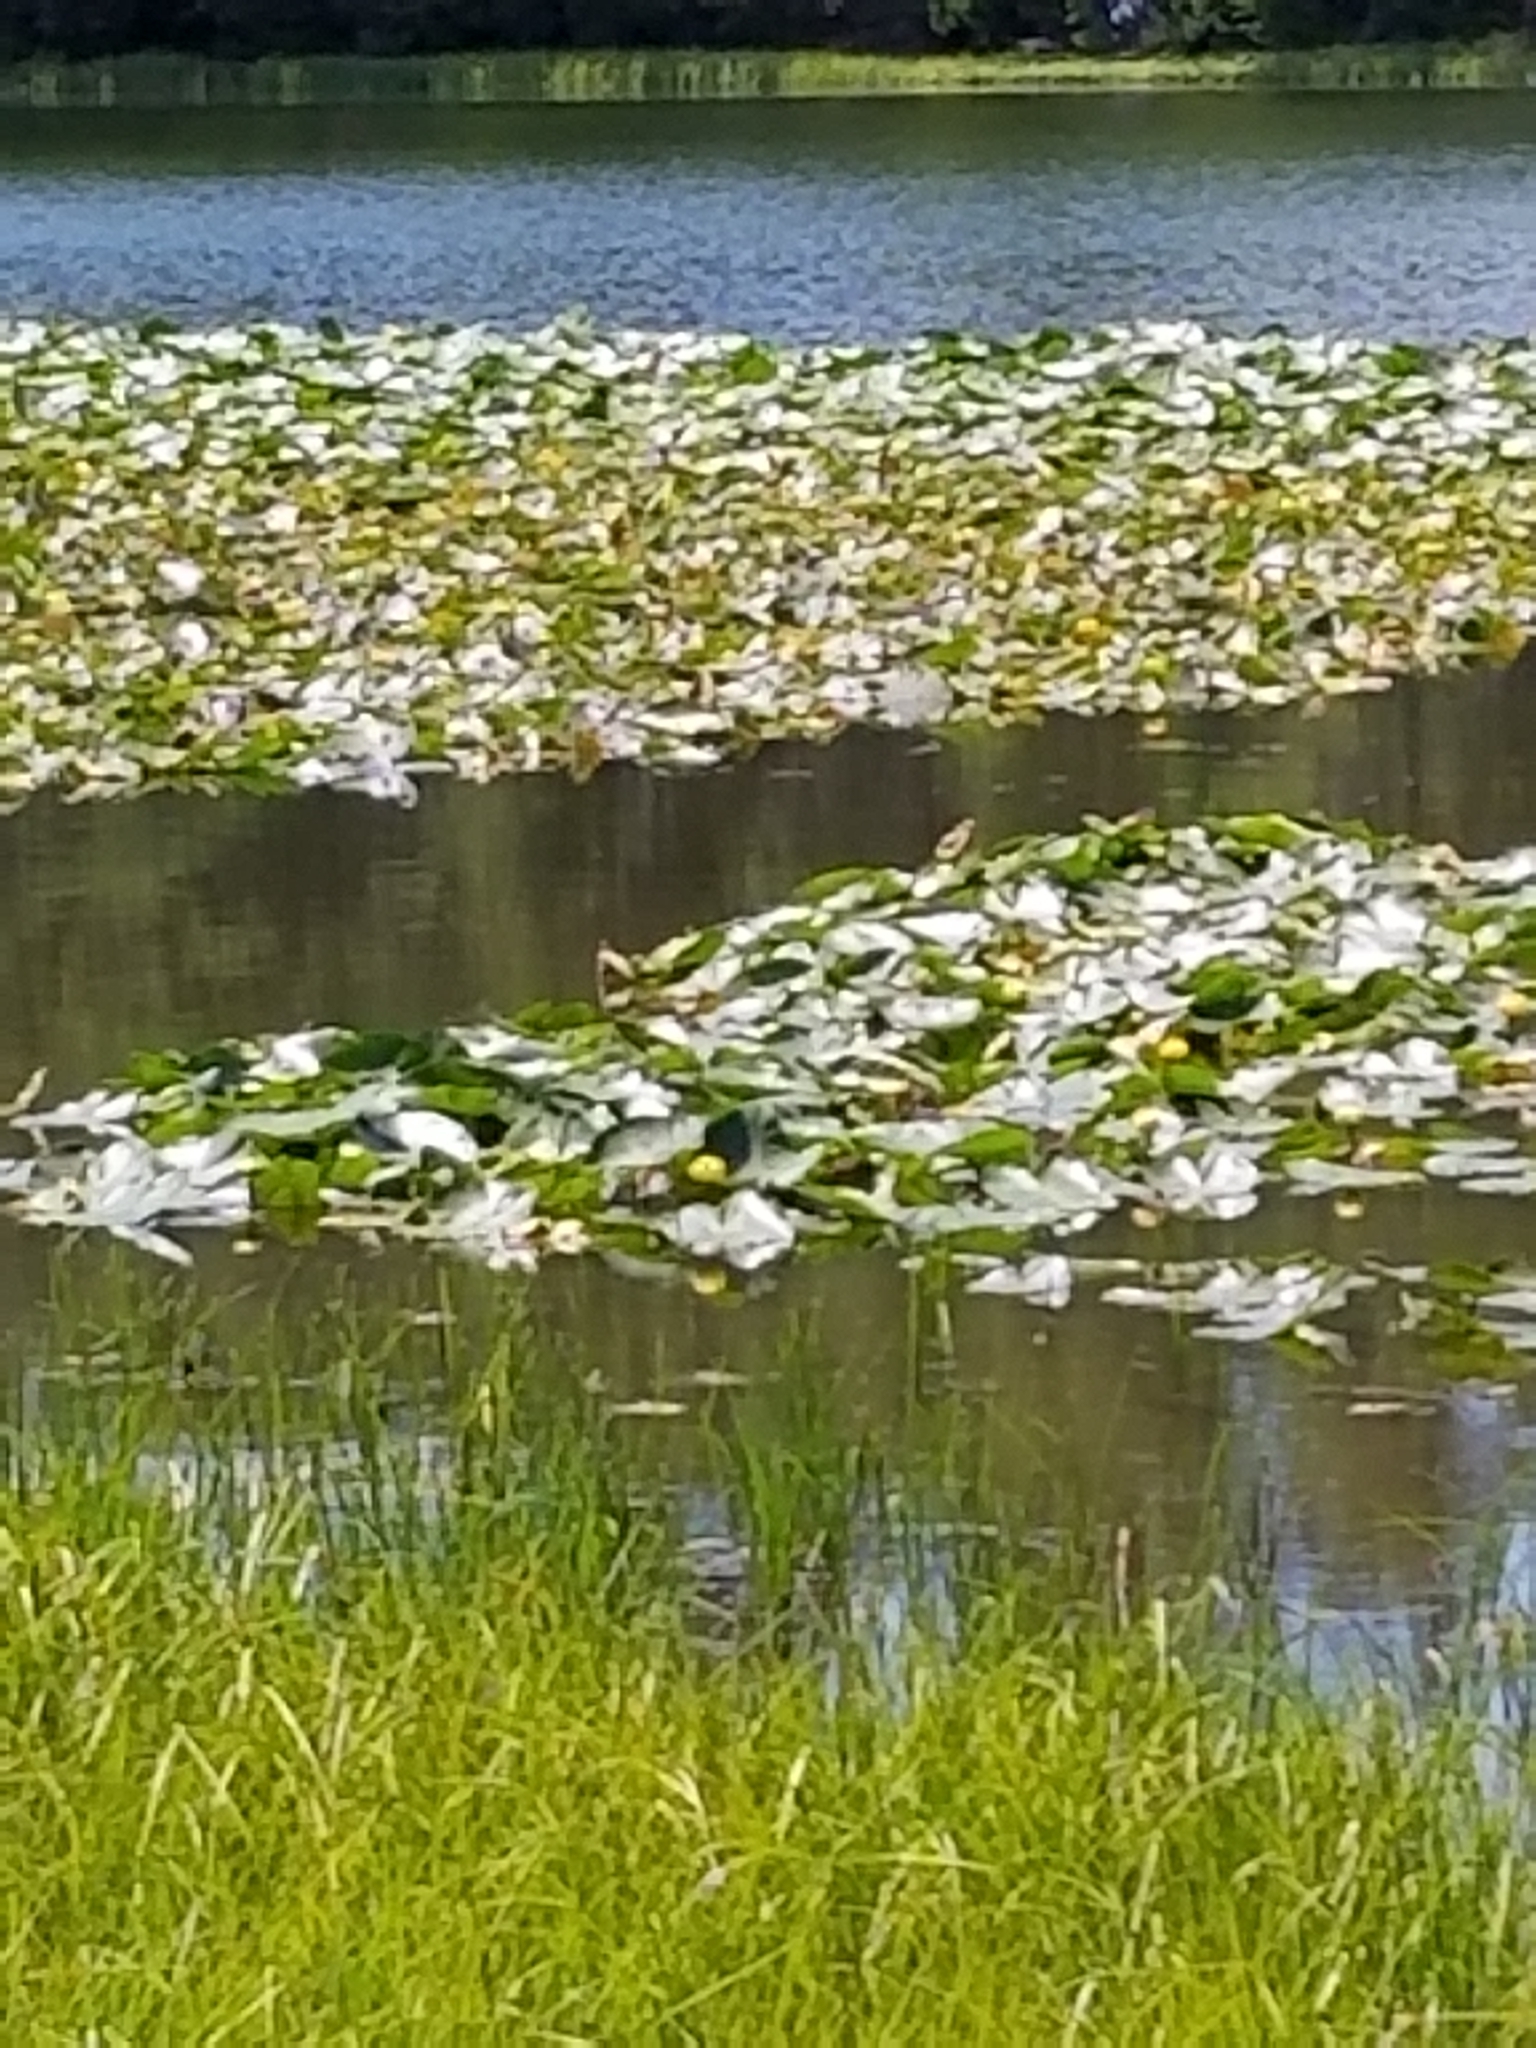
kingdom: Plantae
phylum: Tracheophyta
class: Magnoliopsida
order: Nymphaeales
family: Nymphaeaceae
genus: Nuphar
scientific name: Nuphar polysepala
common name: Rocky mountain cow-lily
